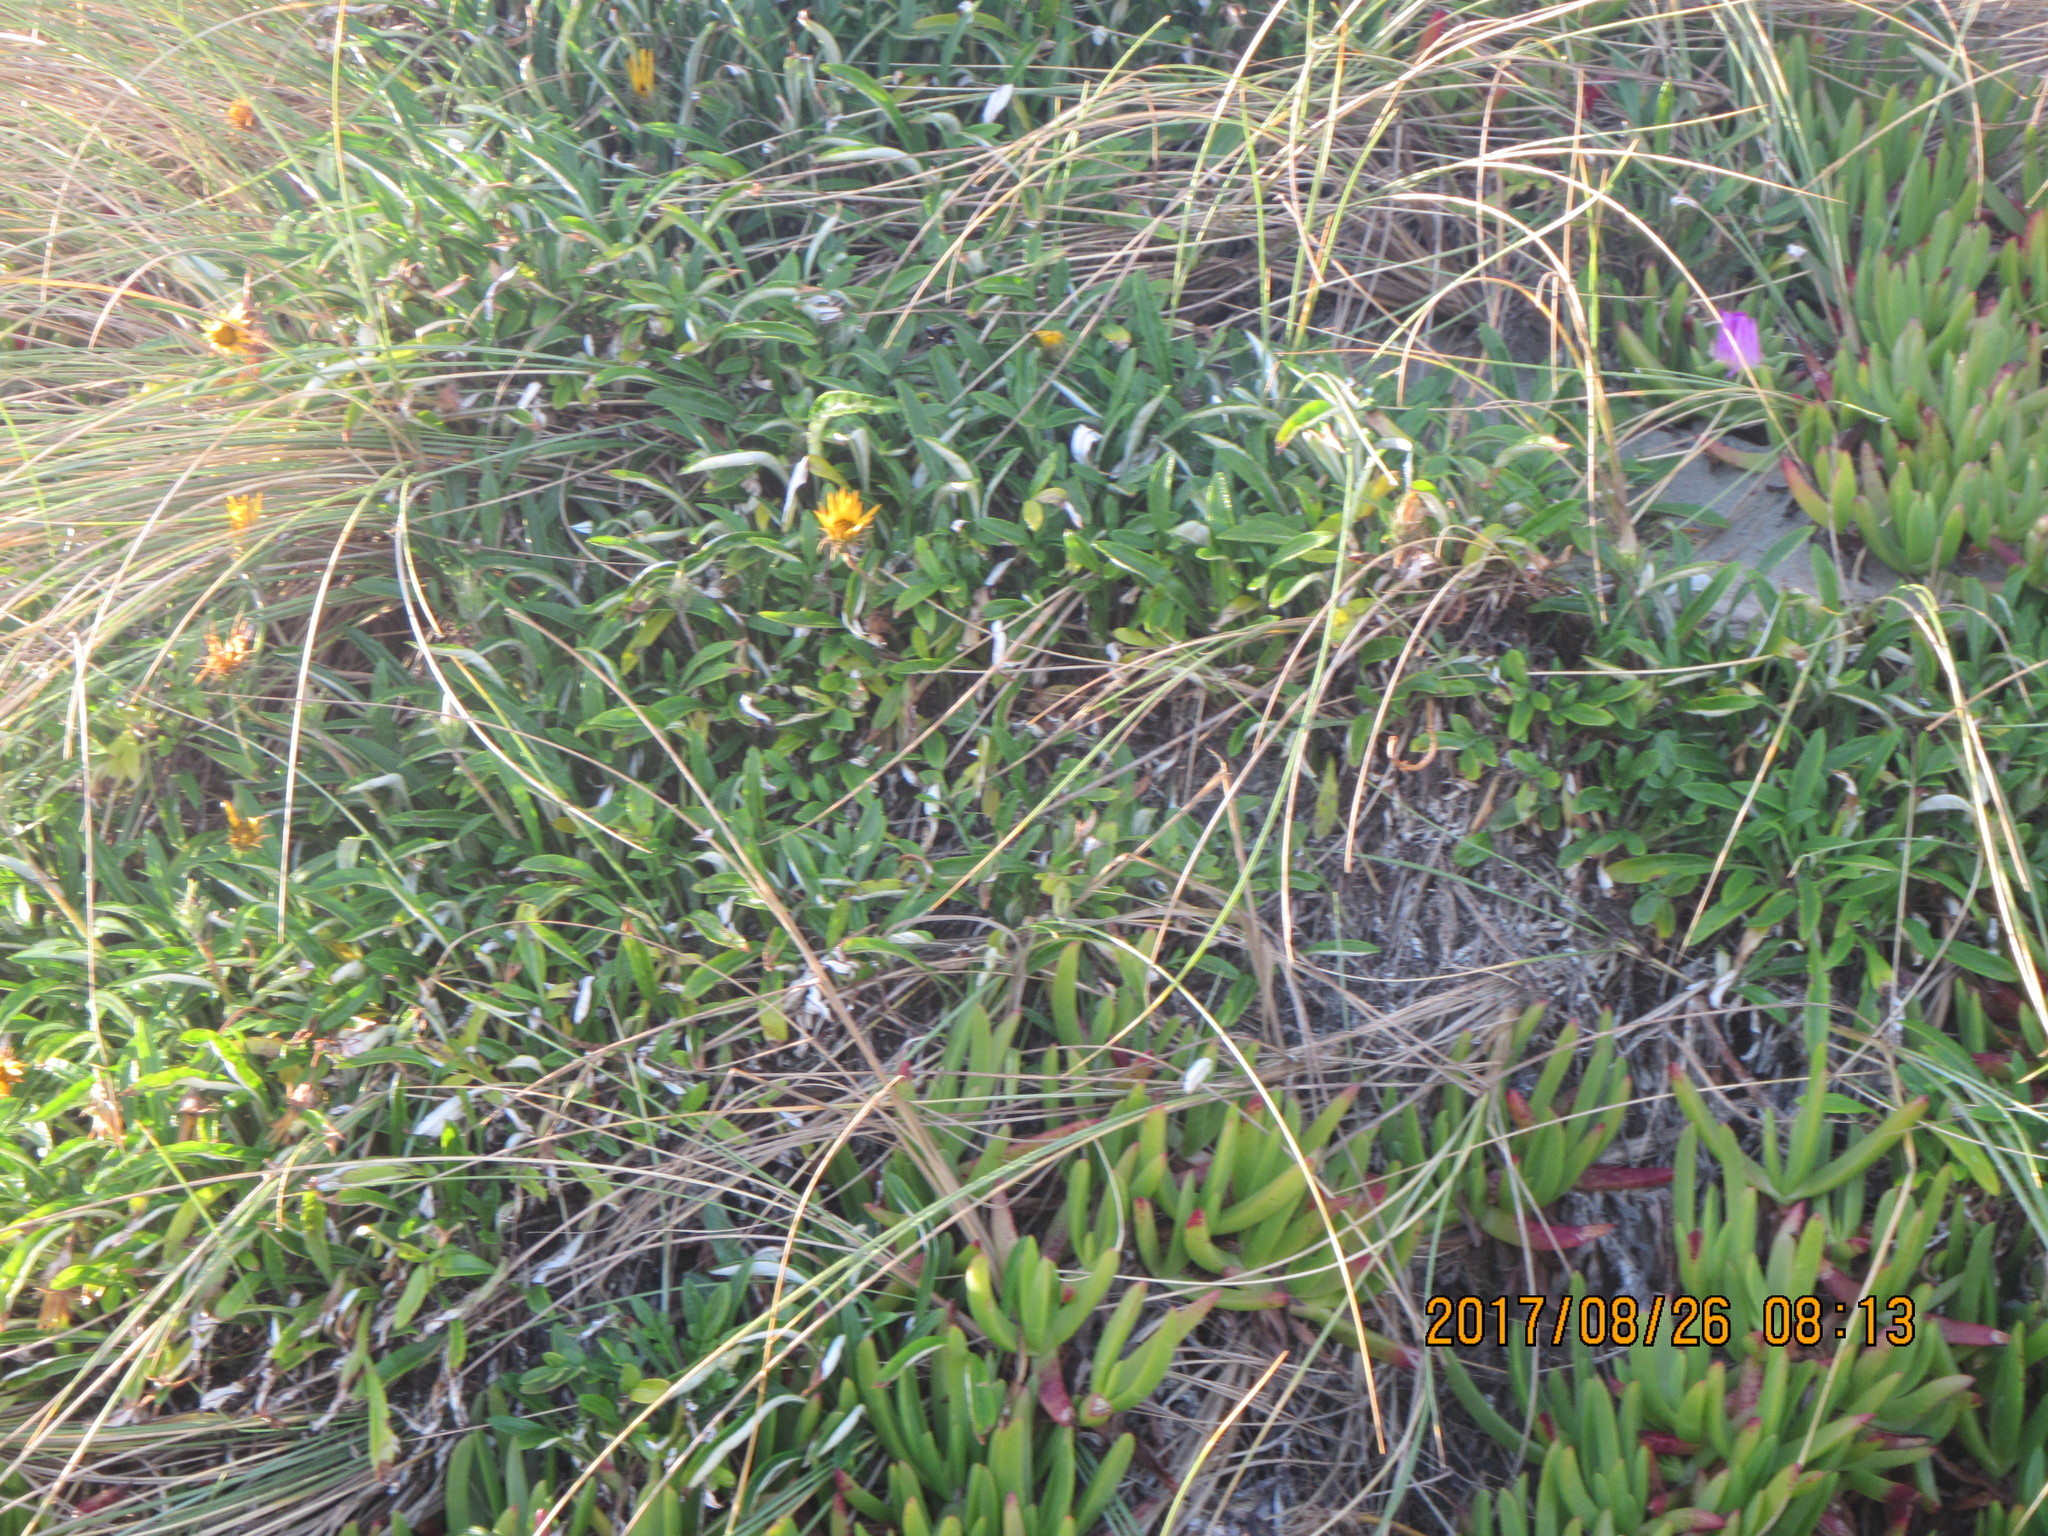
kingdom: Plantae
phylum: Tracheophyta
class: Magnoliopsida
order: Asterales
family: Asteraceae
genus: Gazania
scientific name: Gazania
